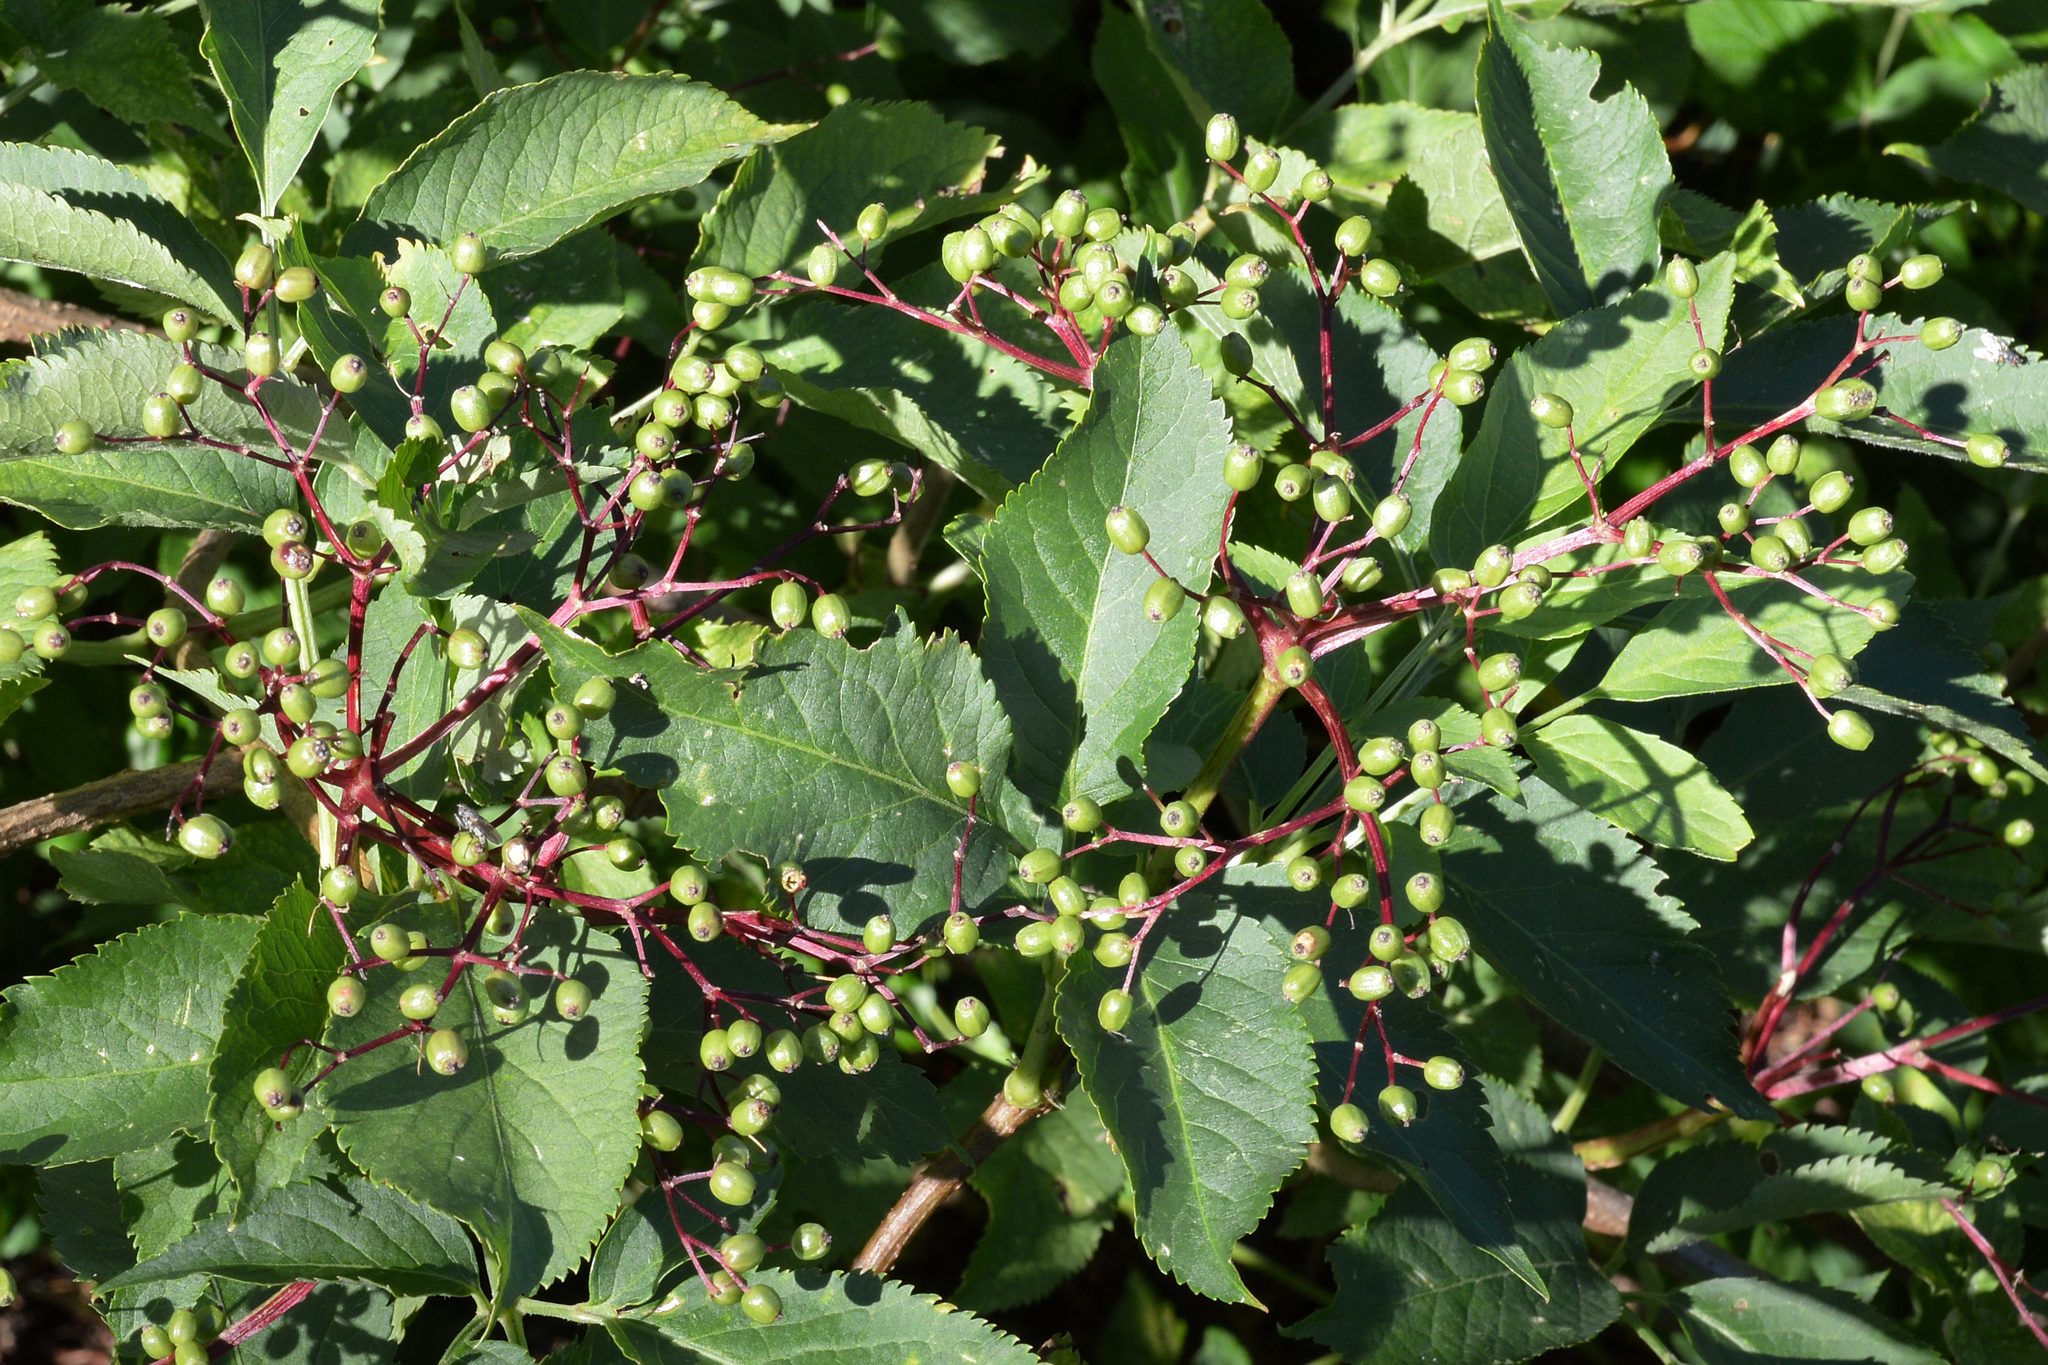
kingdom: Plantae
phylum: Tracheophyta
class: Magnoliopsida
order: Dipsacales
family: Viburnaceae
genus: Sambucus
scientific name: Sambucus nigra
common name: Elder
